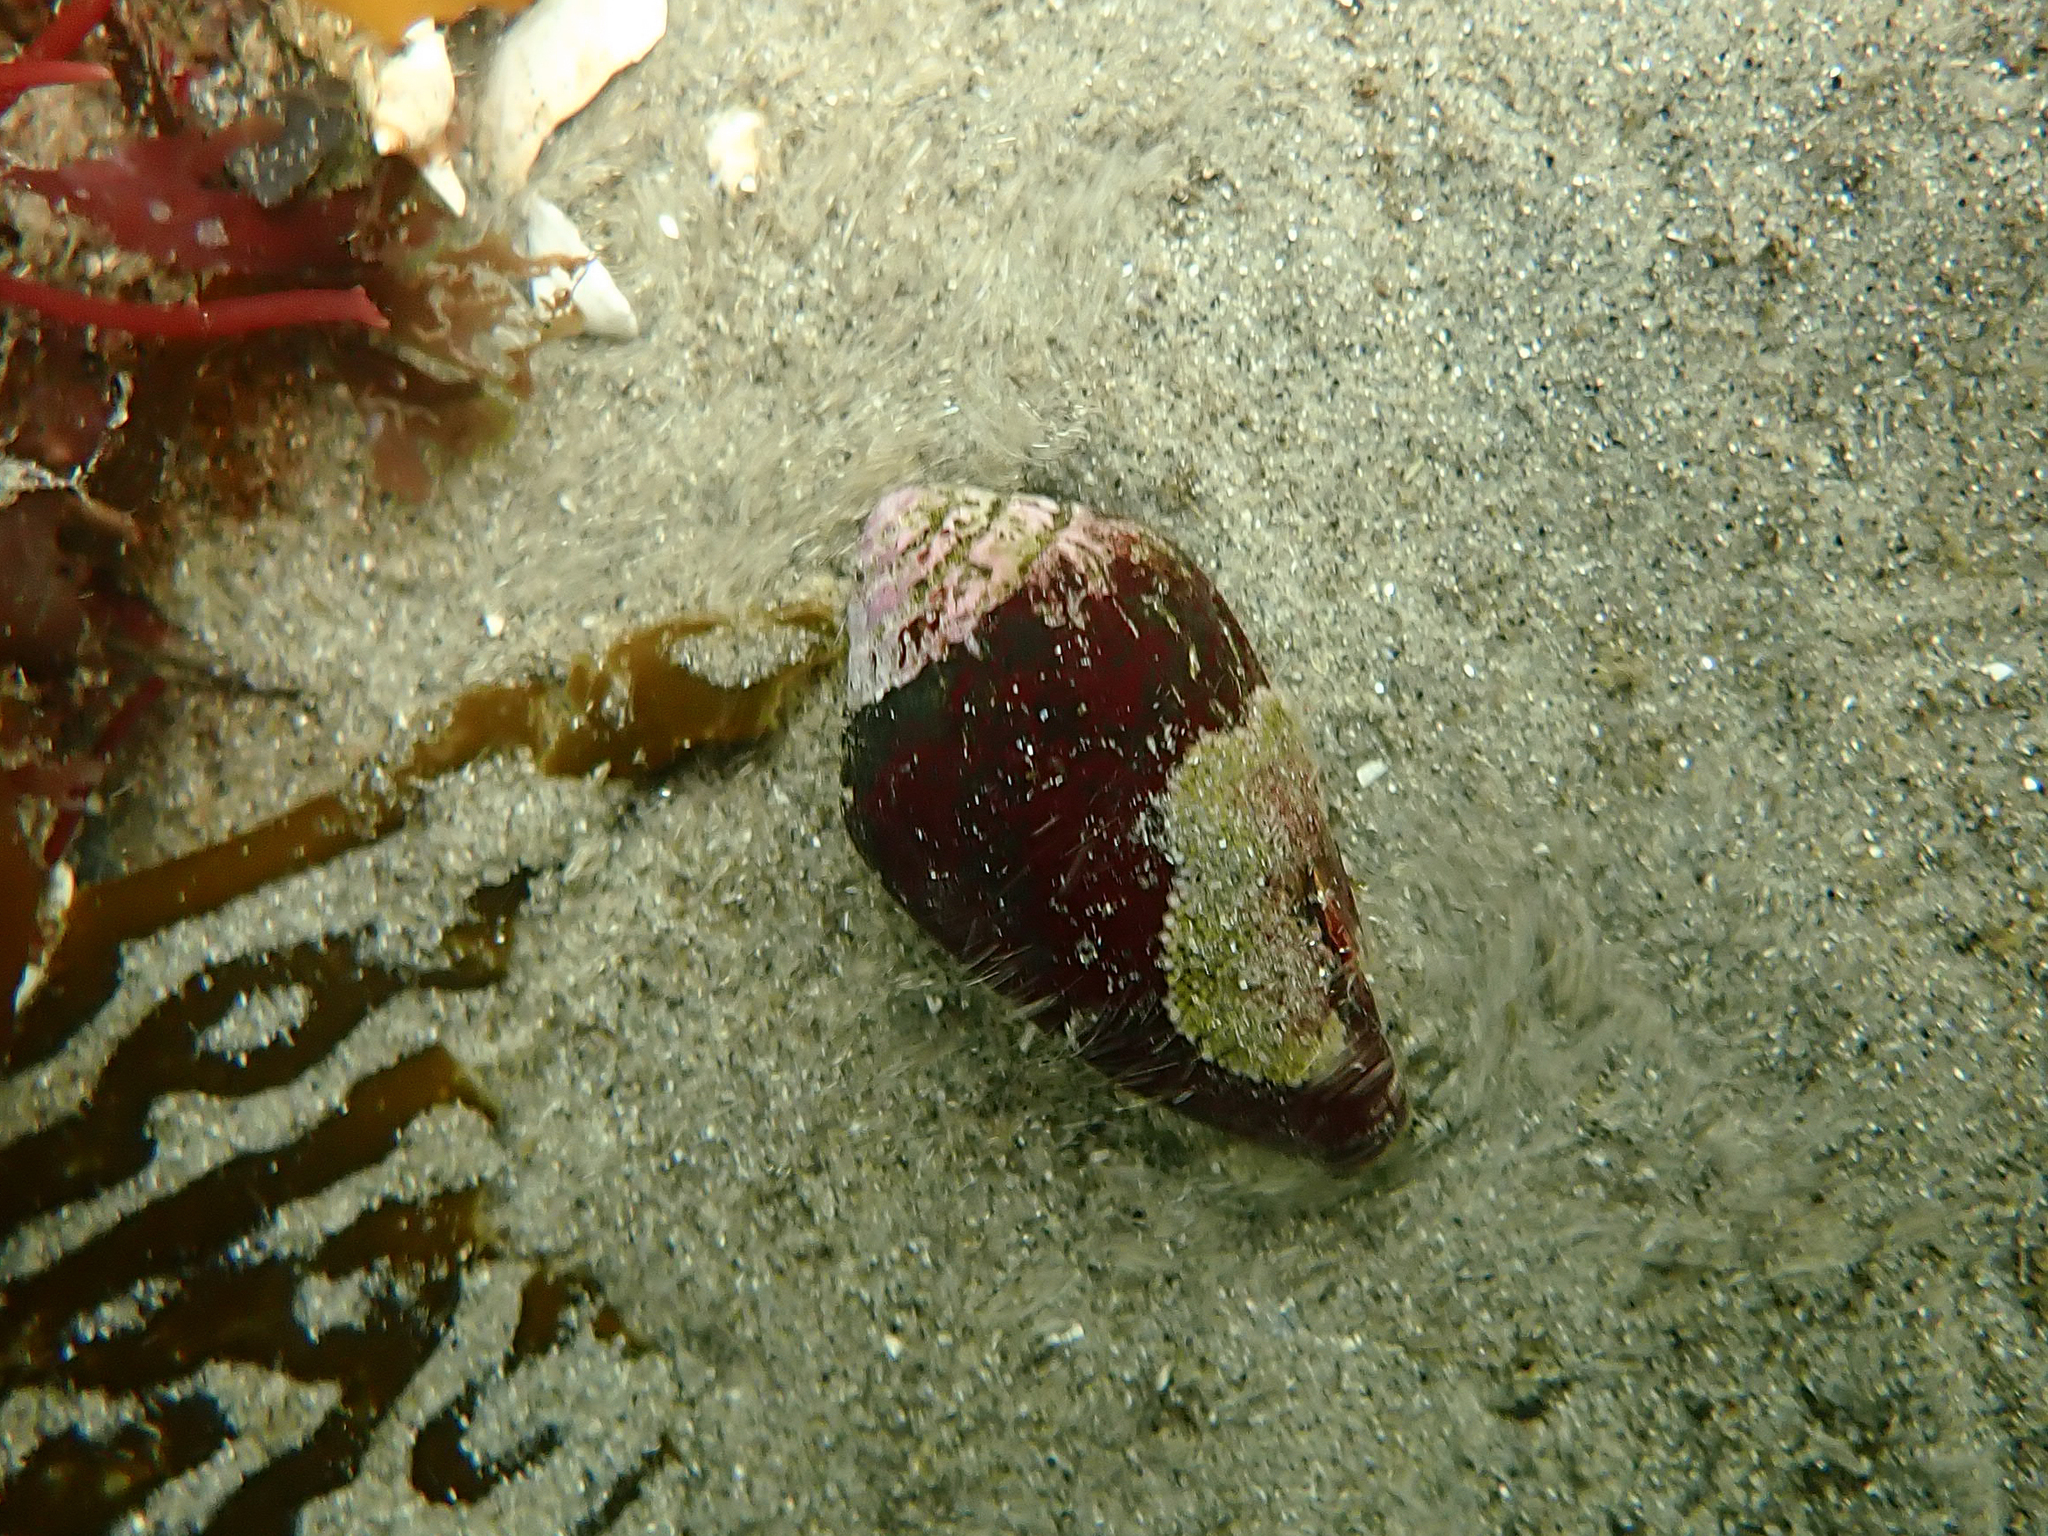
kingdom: Animalia
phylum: Mollusca
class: Gastropoda
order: Neogastropoda
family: Conidae
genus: Californiconus
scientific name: Californiconus californicus
